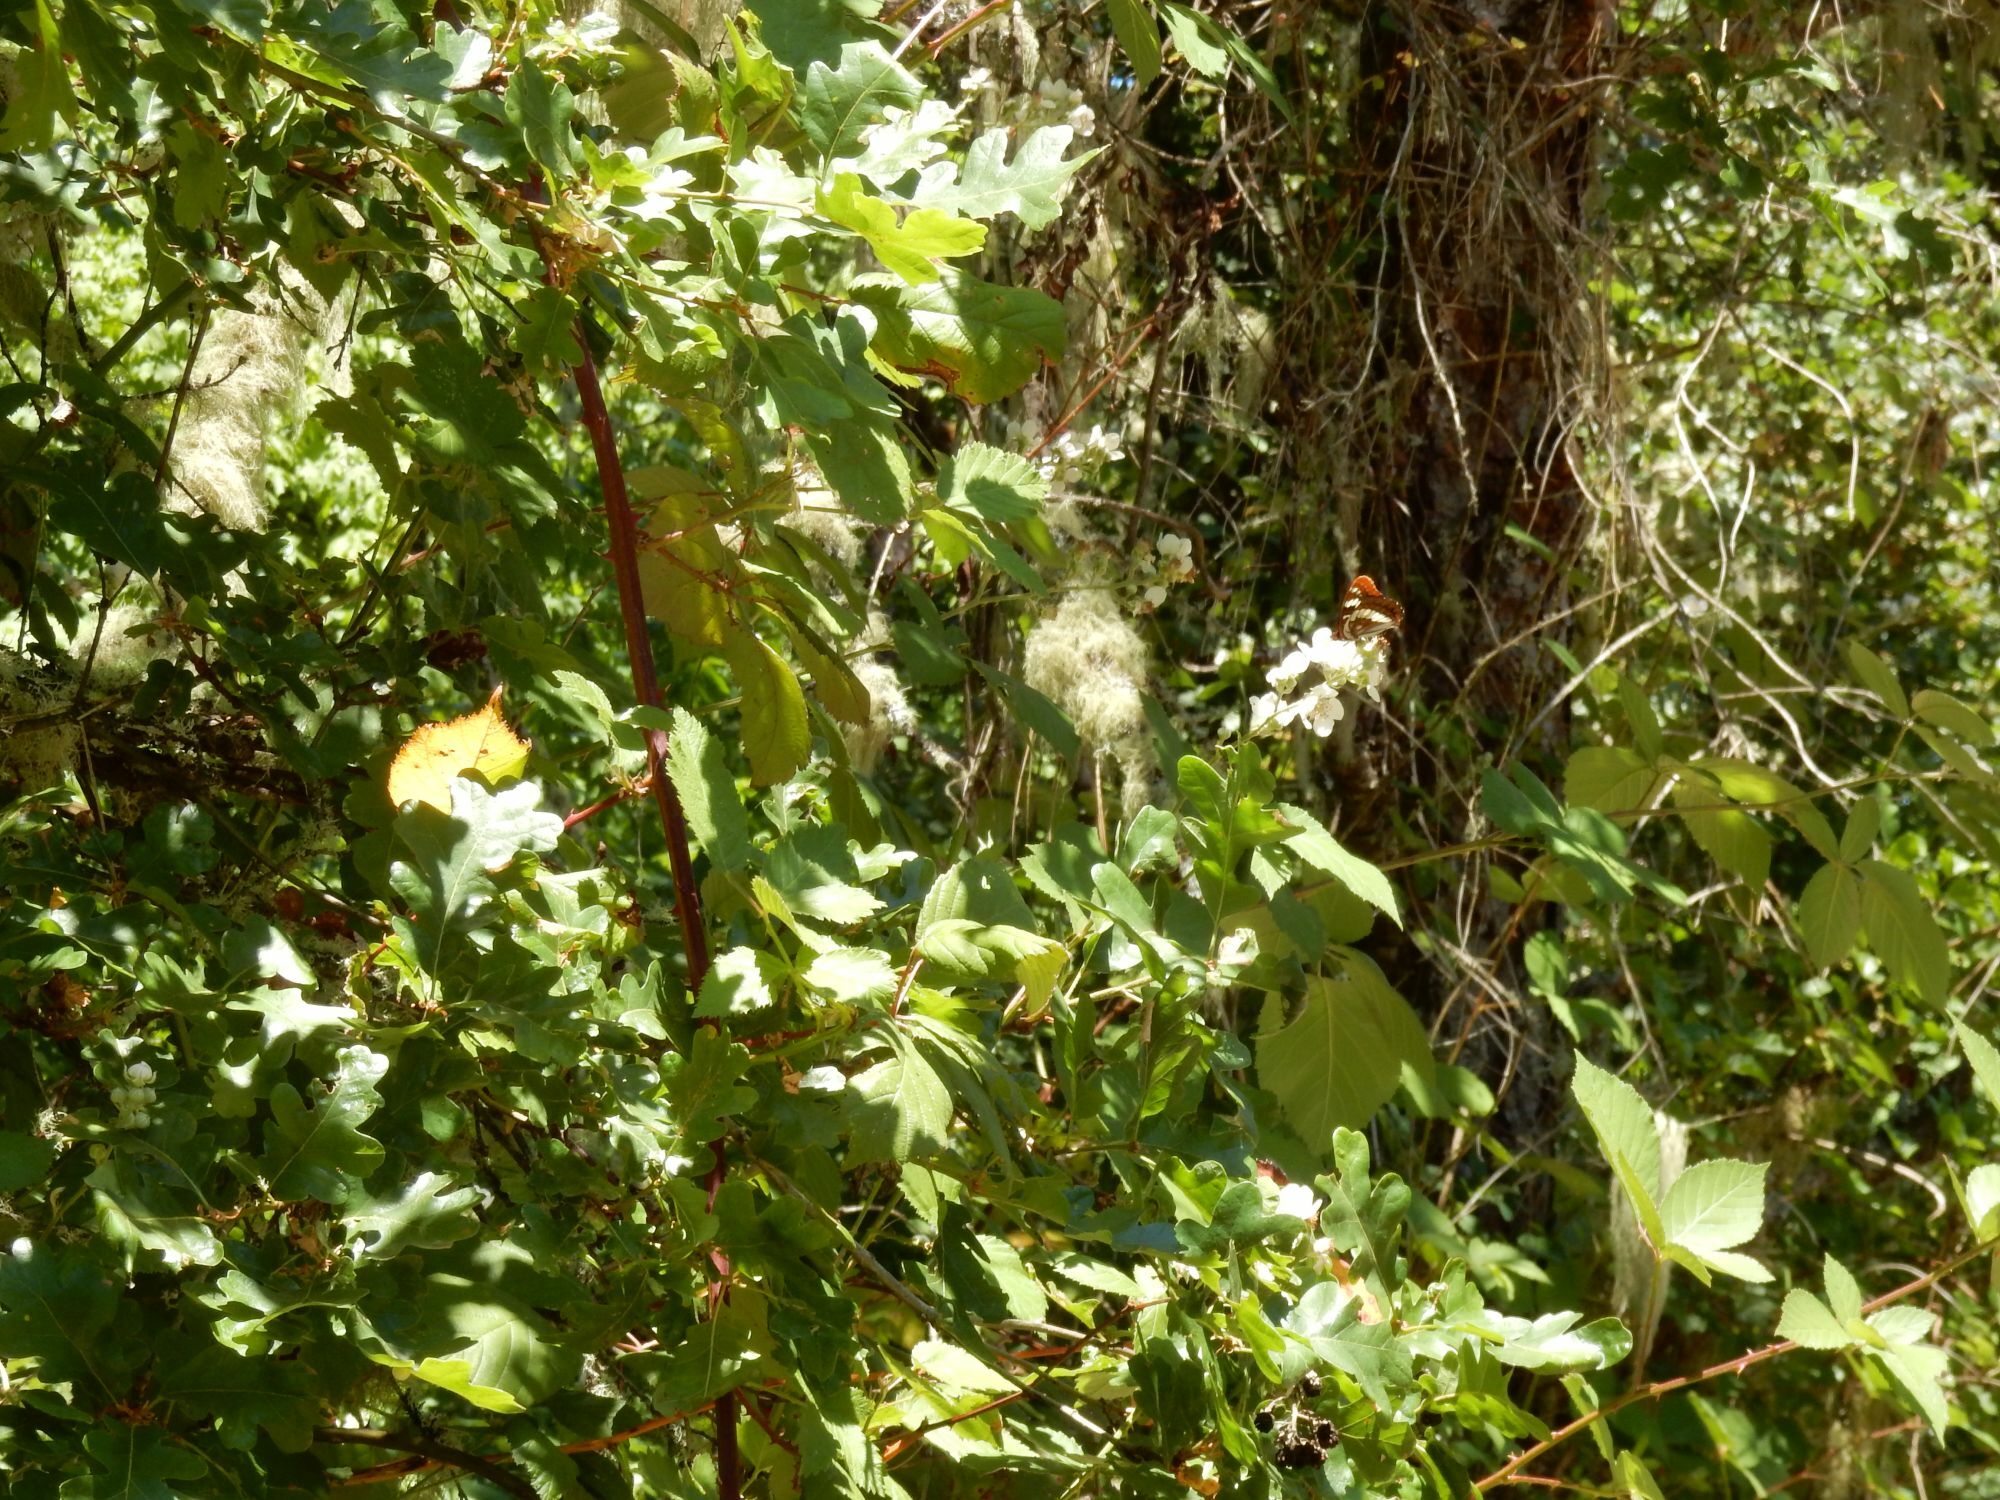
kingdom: Animalia
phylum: Arthropoda
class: Insecta
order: Lepidoptera
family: Nymphalidae
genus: Limenitis
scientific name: Limenitis lorquini
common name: Lorquin's admiral
